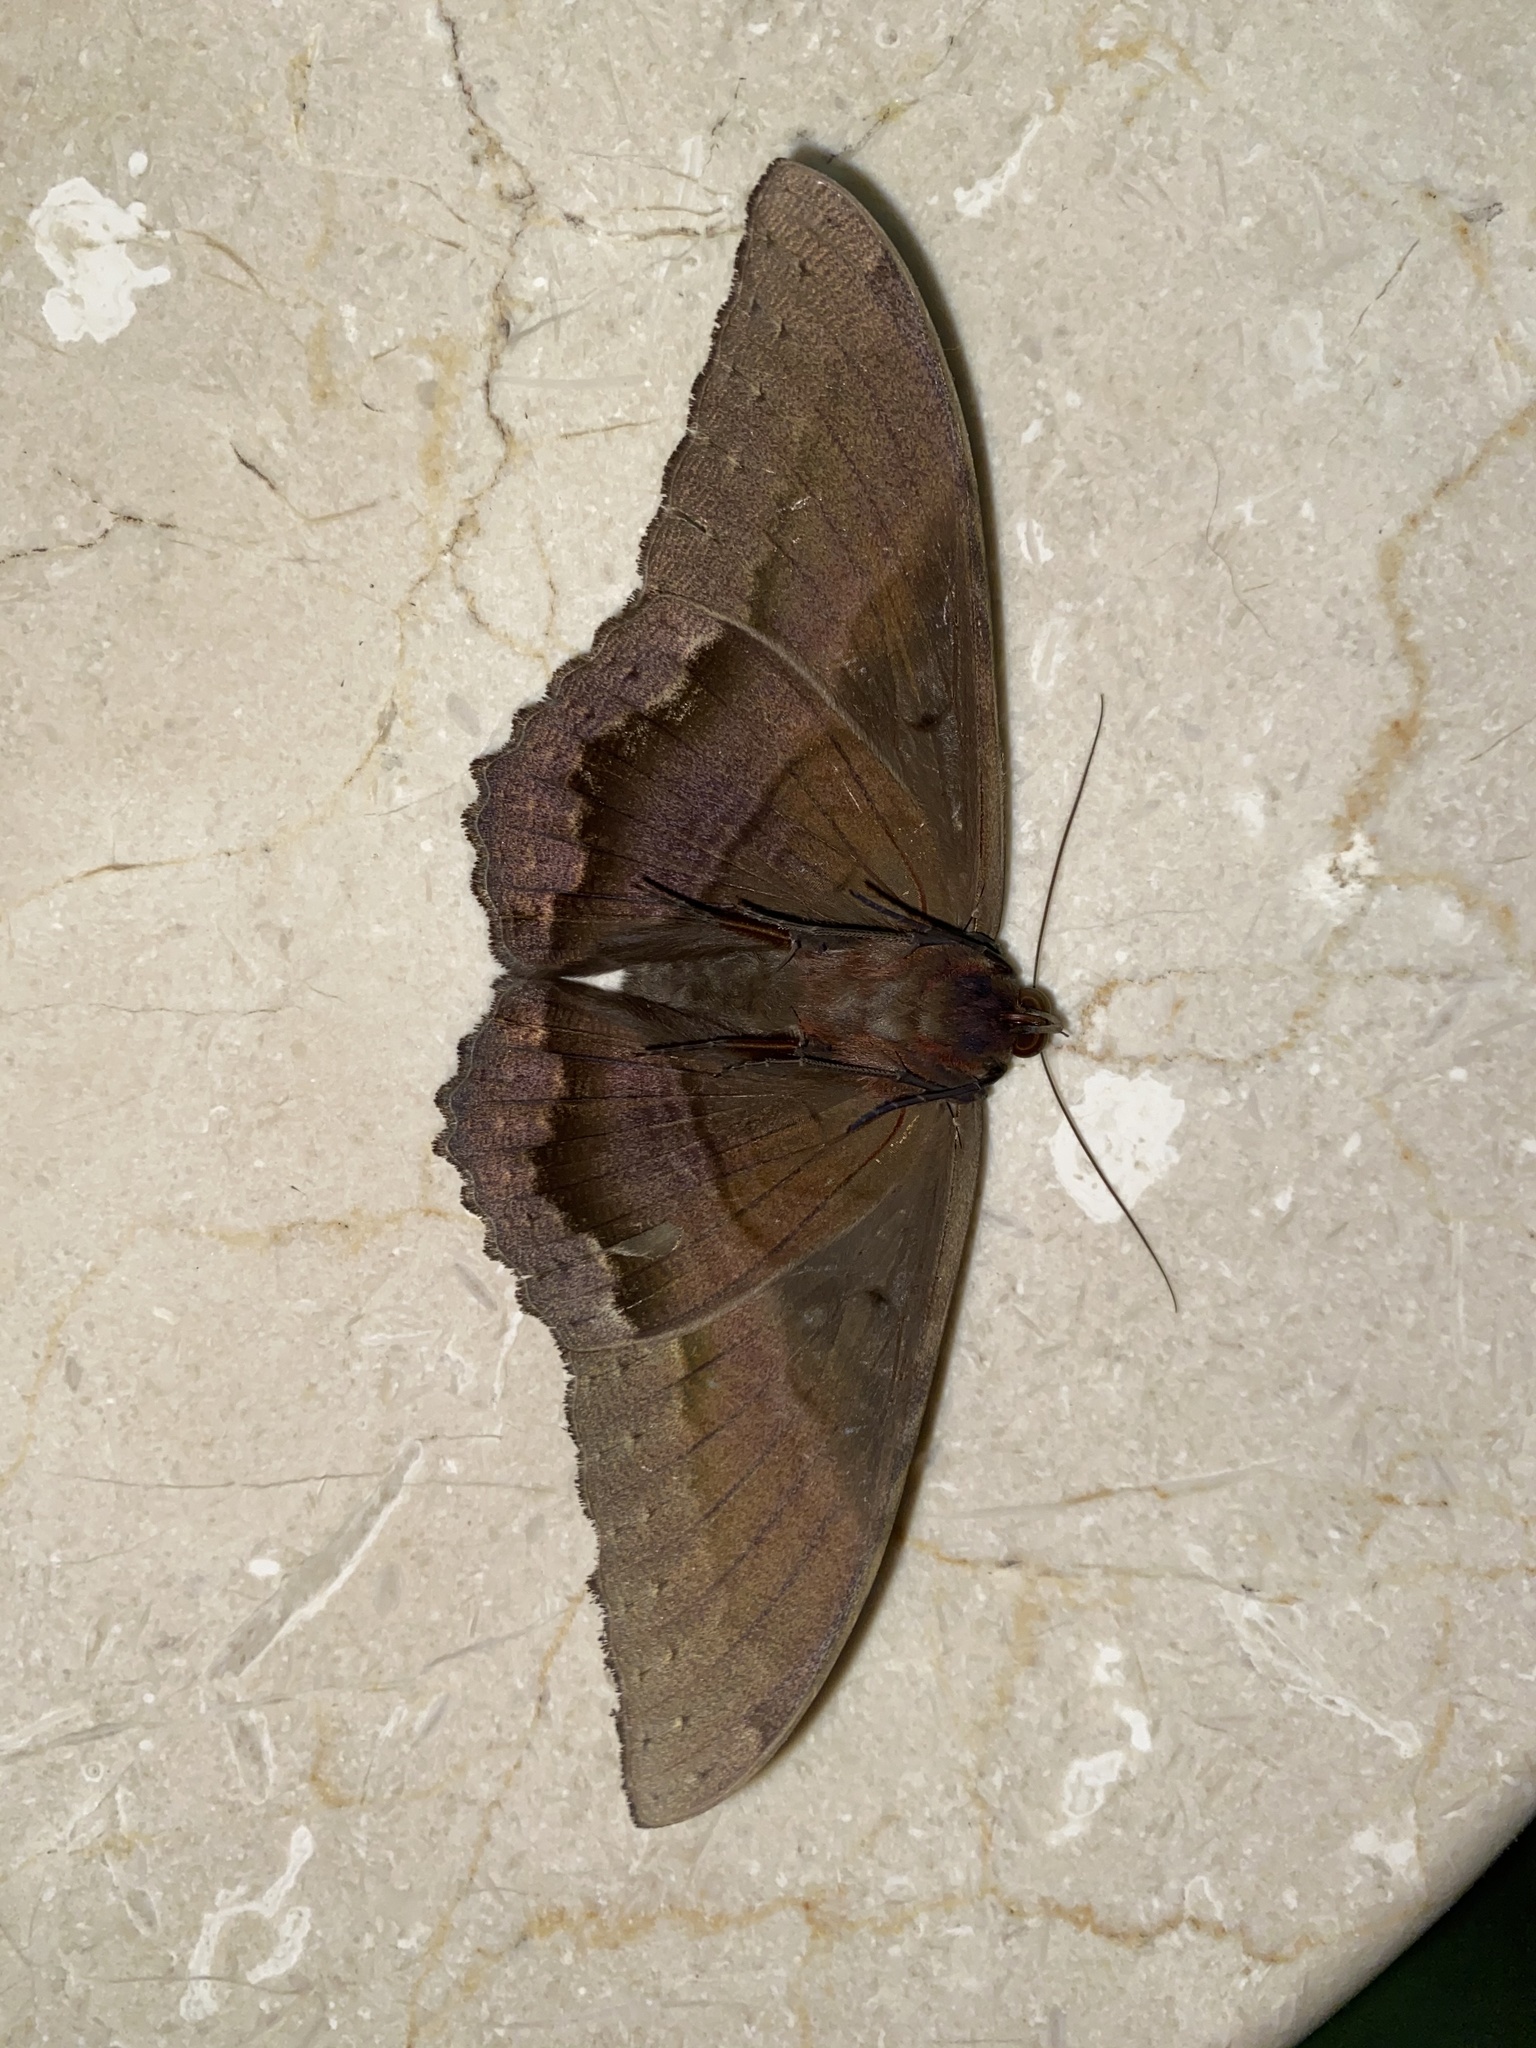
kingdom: Animalia
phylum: Arthropoda
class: Insecta
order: Lepidoptera
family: Erebidae
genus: Ascalapha
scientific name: Ascalapha odorata
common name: Black witch
